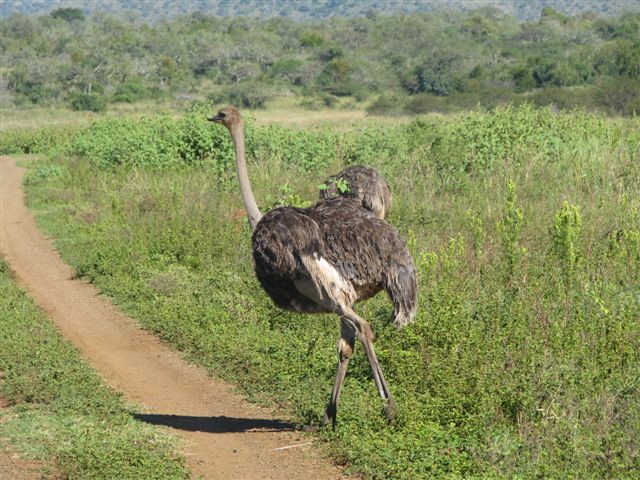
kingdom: Animalia
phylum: Chordata
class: Aves
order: Struthioniformes
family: Struthionidae
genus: Struthio
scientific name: Struthio camelus
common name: Common ostrich
